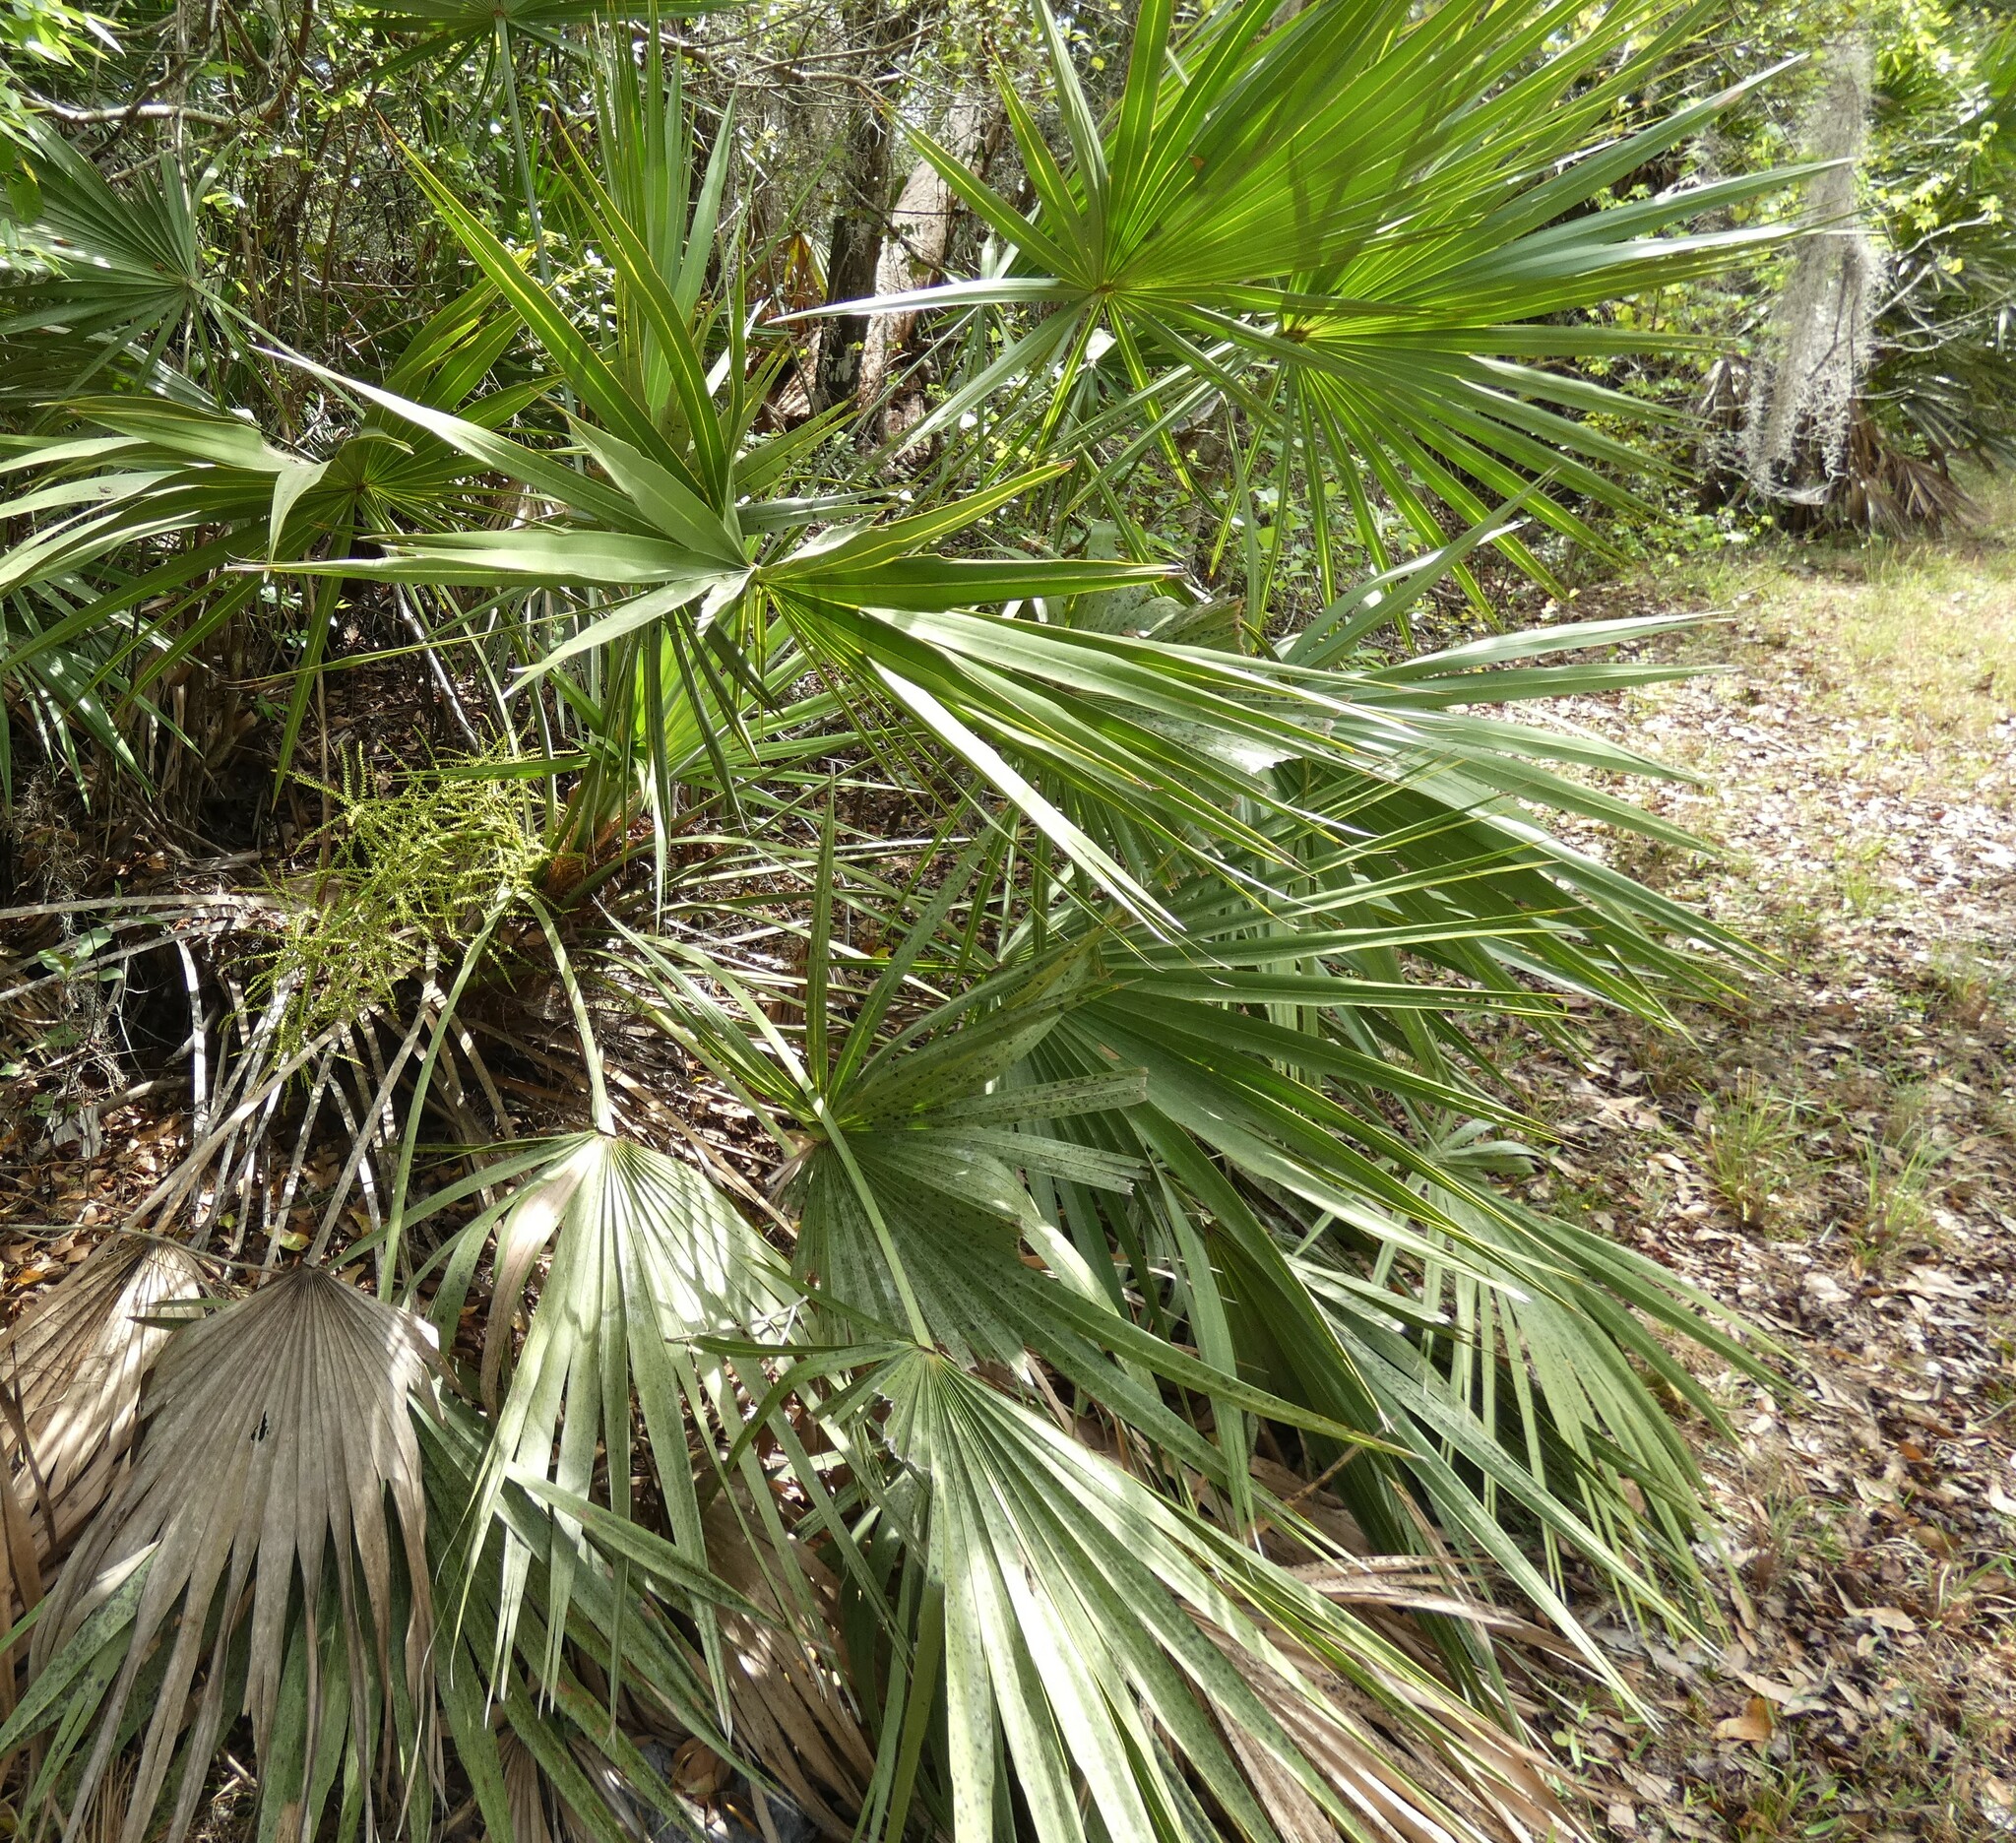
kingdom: Plantae
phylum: Tracheophyta
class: Liliopsida
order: Arecales
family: Arecaceae
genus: Serenoa
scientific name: Serenoa repens
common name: Saw-palmetto
